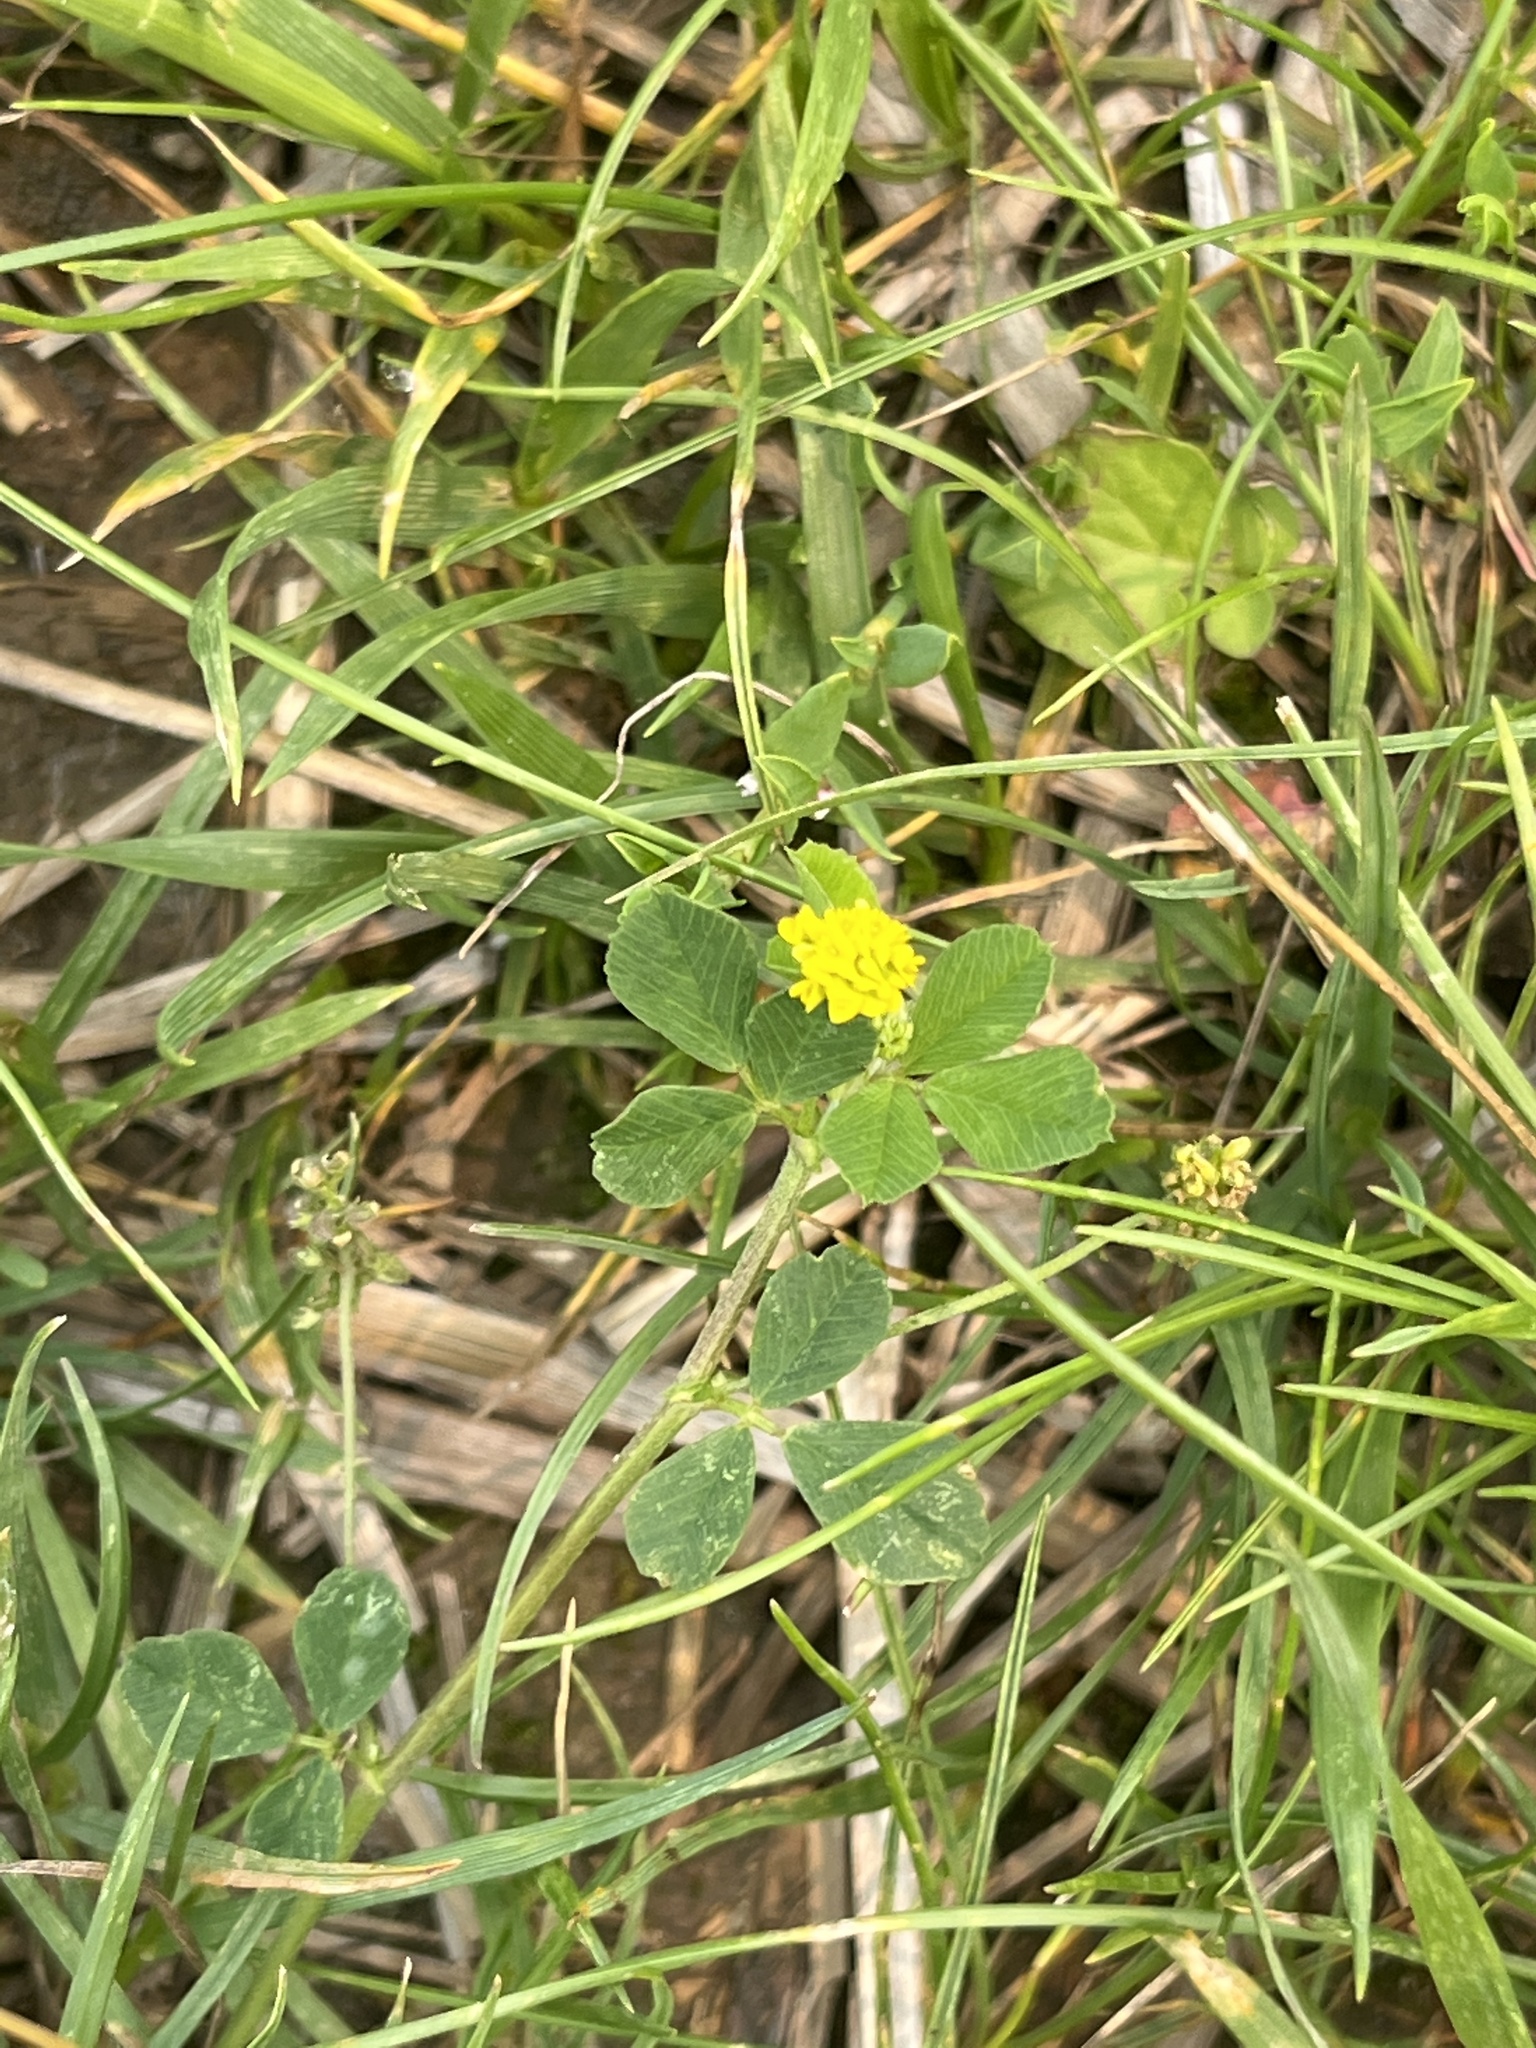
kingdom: Plantae
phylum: Tracheophyta
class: Magnoliopsida
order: Fabales
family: Fabaceae
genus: Medicago
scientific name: Medicago lupulina
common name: Black medick
